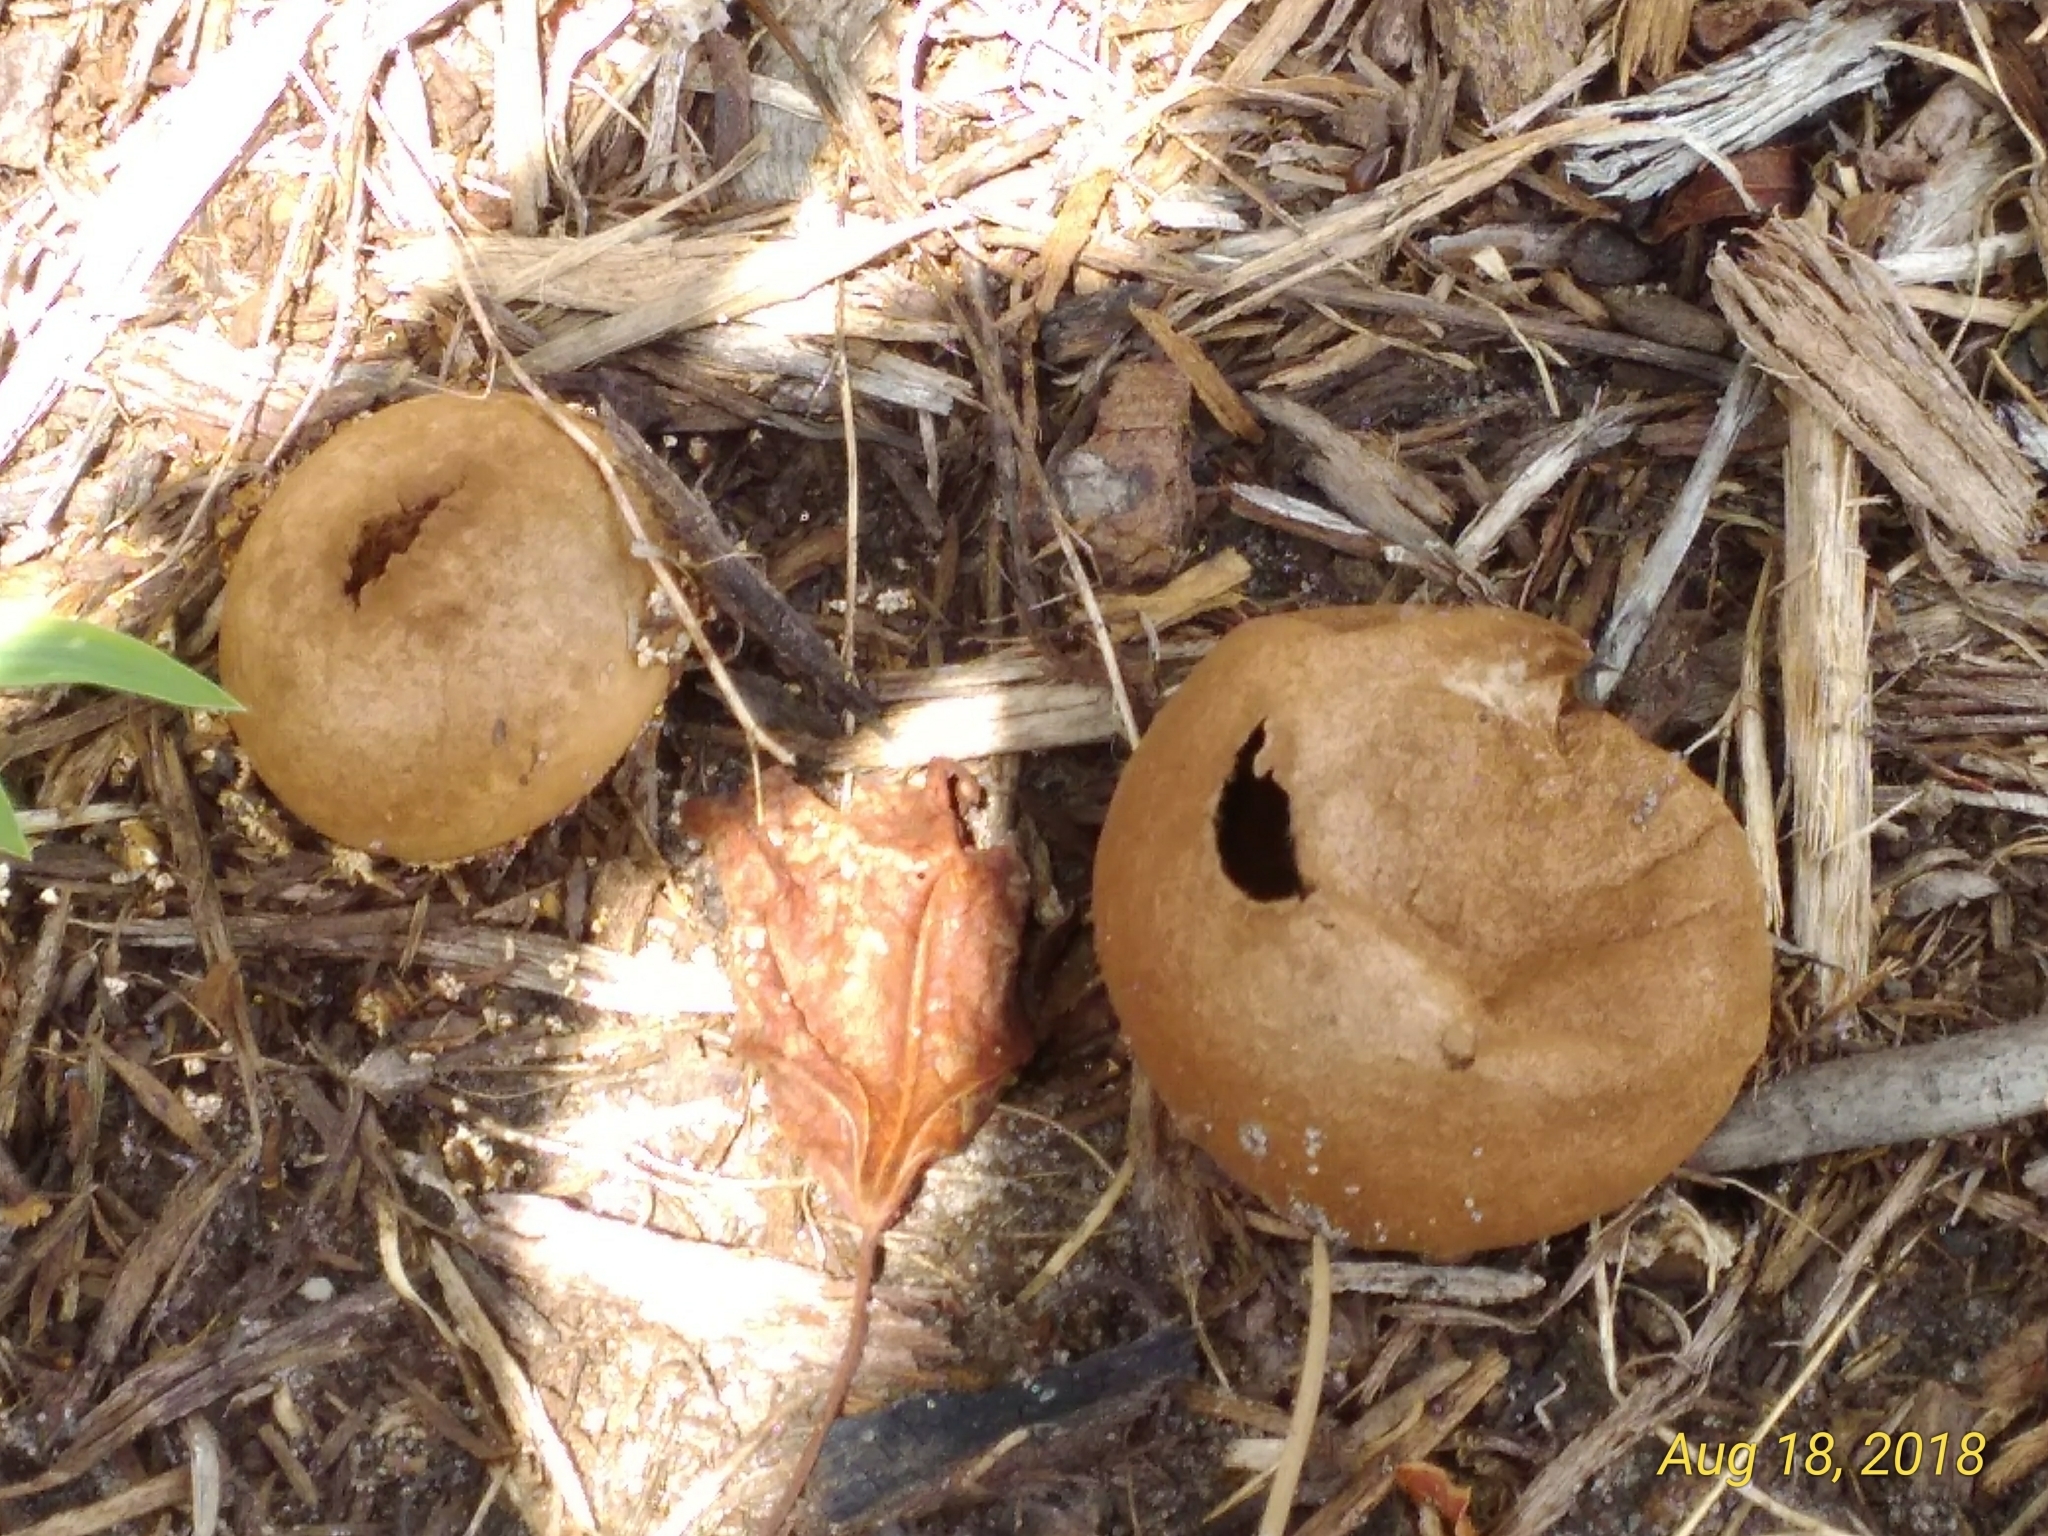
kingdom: Fungi
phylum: Basidiomycota
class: Agaricomycetes
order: Agaricales
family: Lycoperdaceae
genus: Apioperdon
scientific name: Apioperdon pyriforme
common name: Pear-shaped puffball
